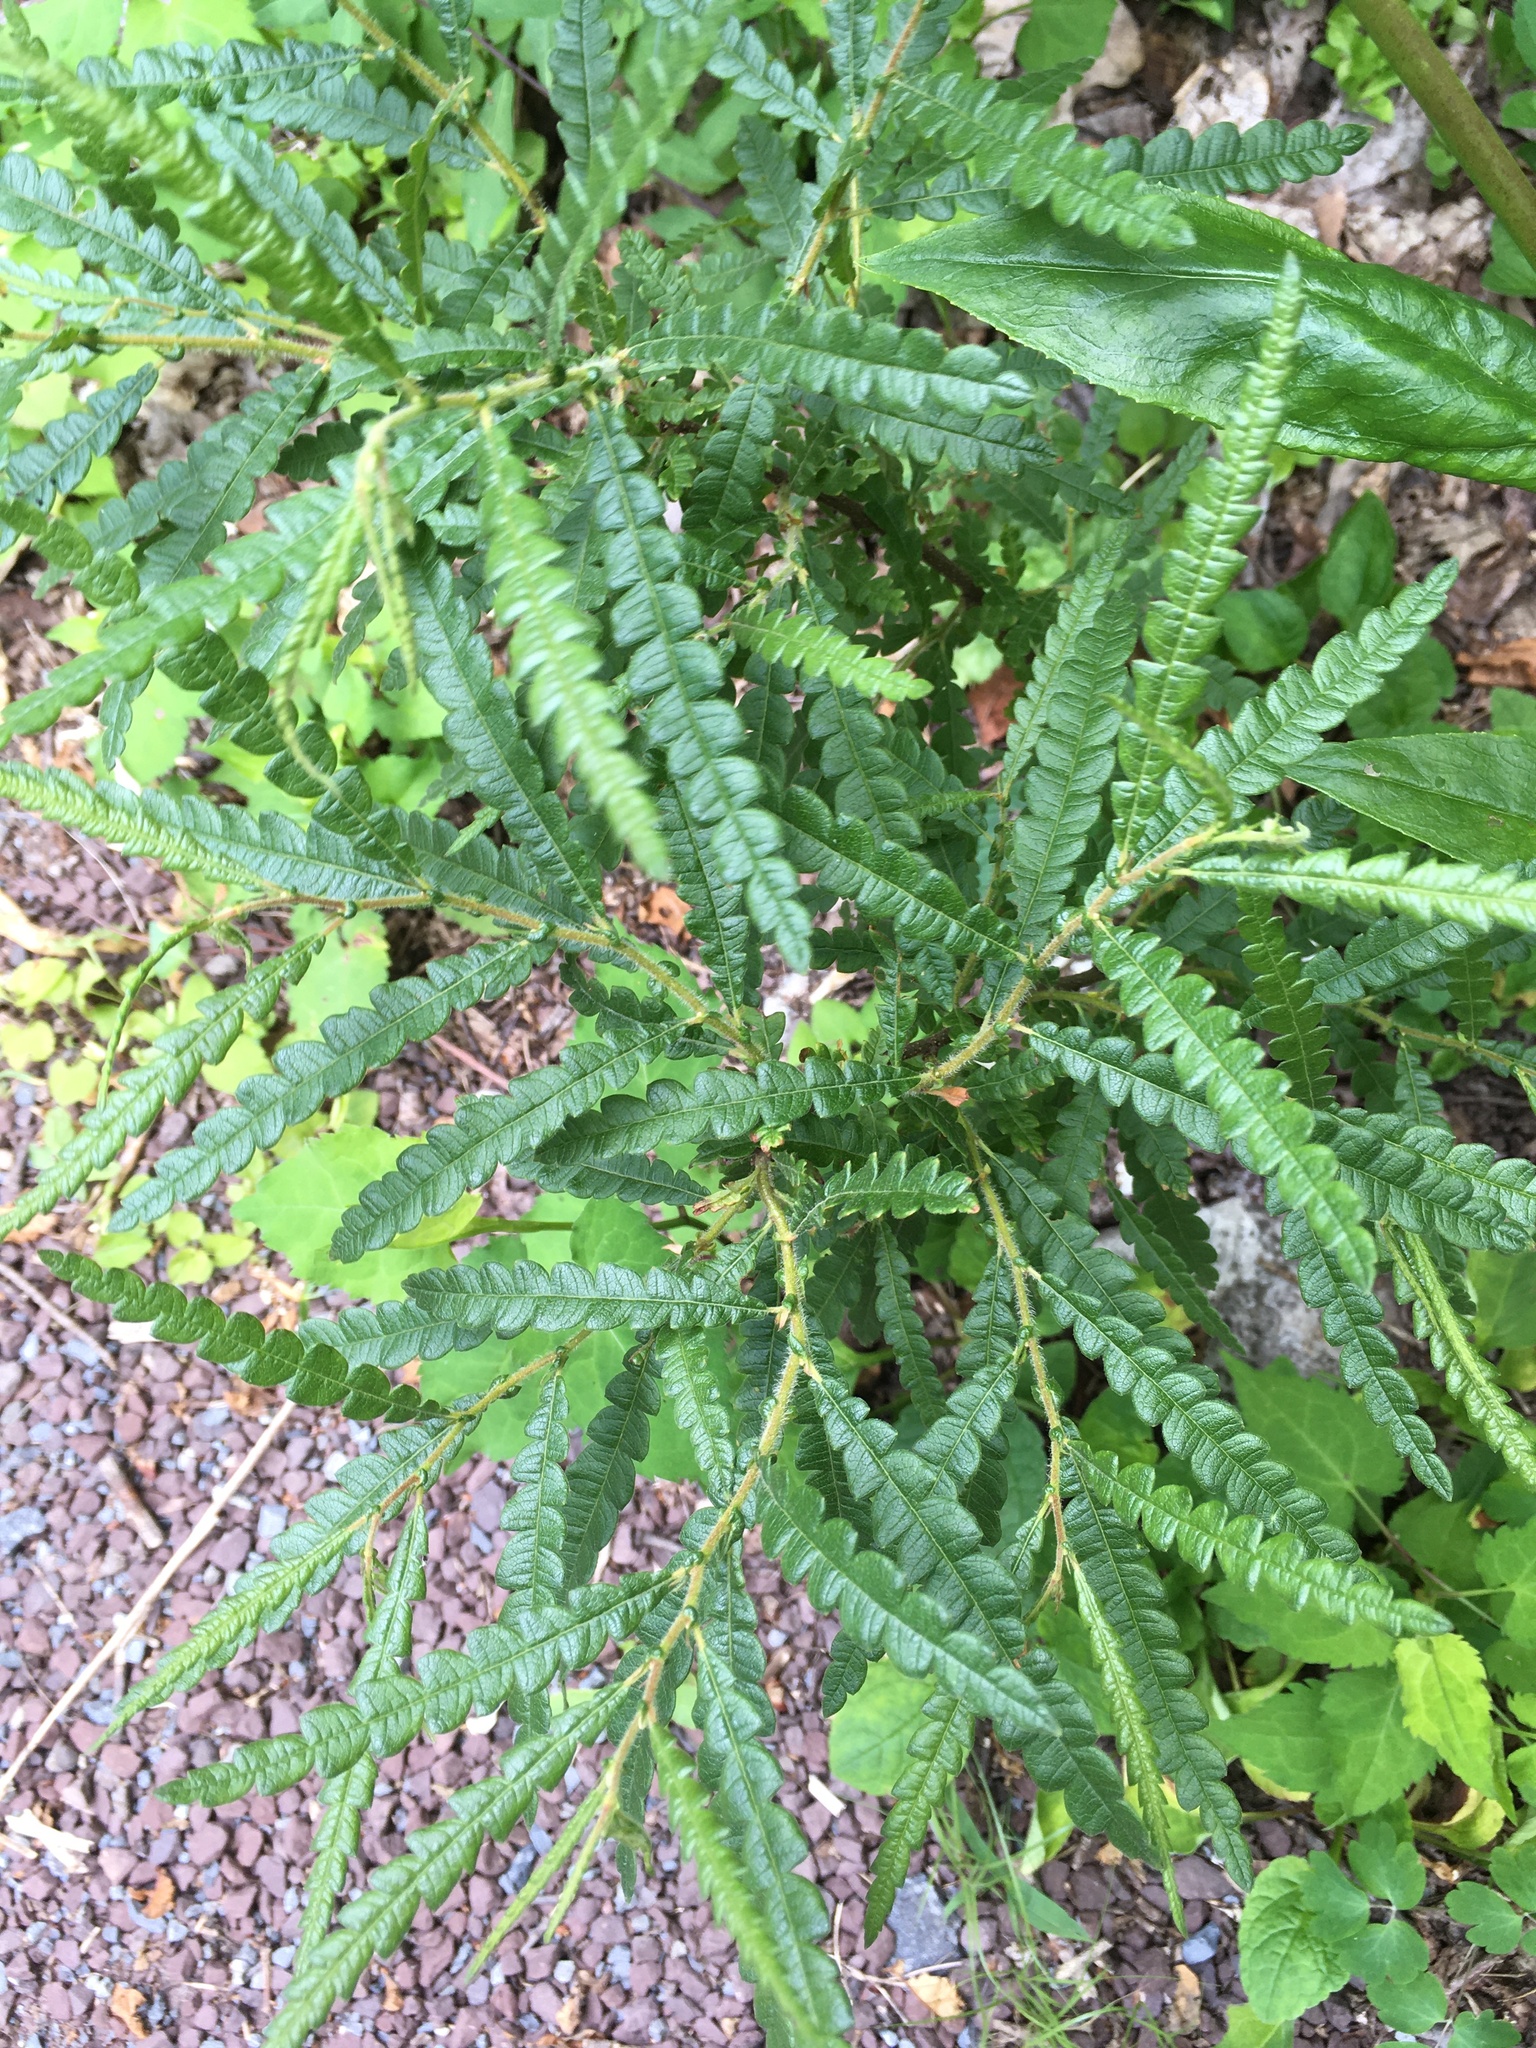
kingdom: Plantae
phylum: Tracheophyta
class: Magnoliopsida
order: Fagales
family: Myricaceae
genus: Comptonia
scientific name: Comptonia peregrina
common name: Sweet-fern
